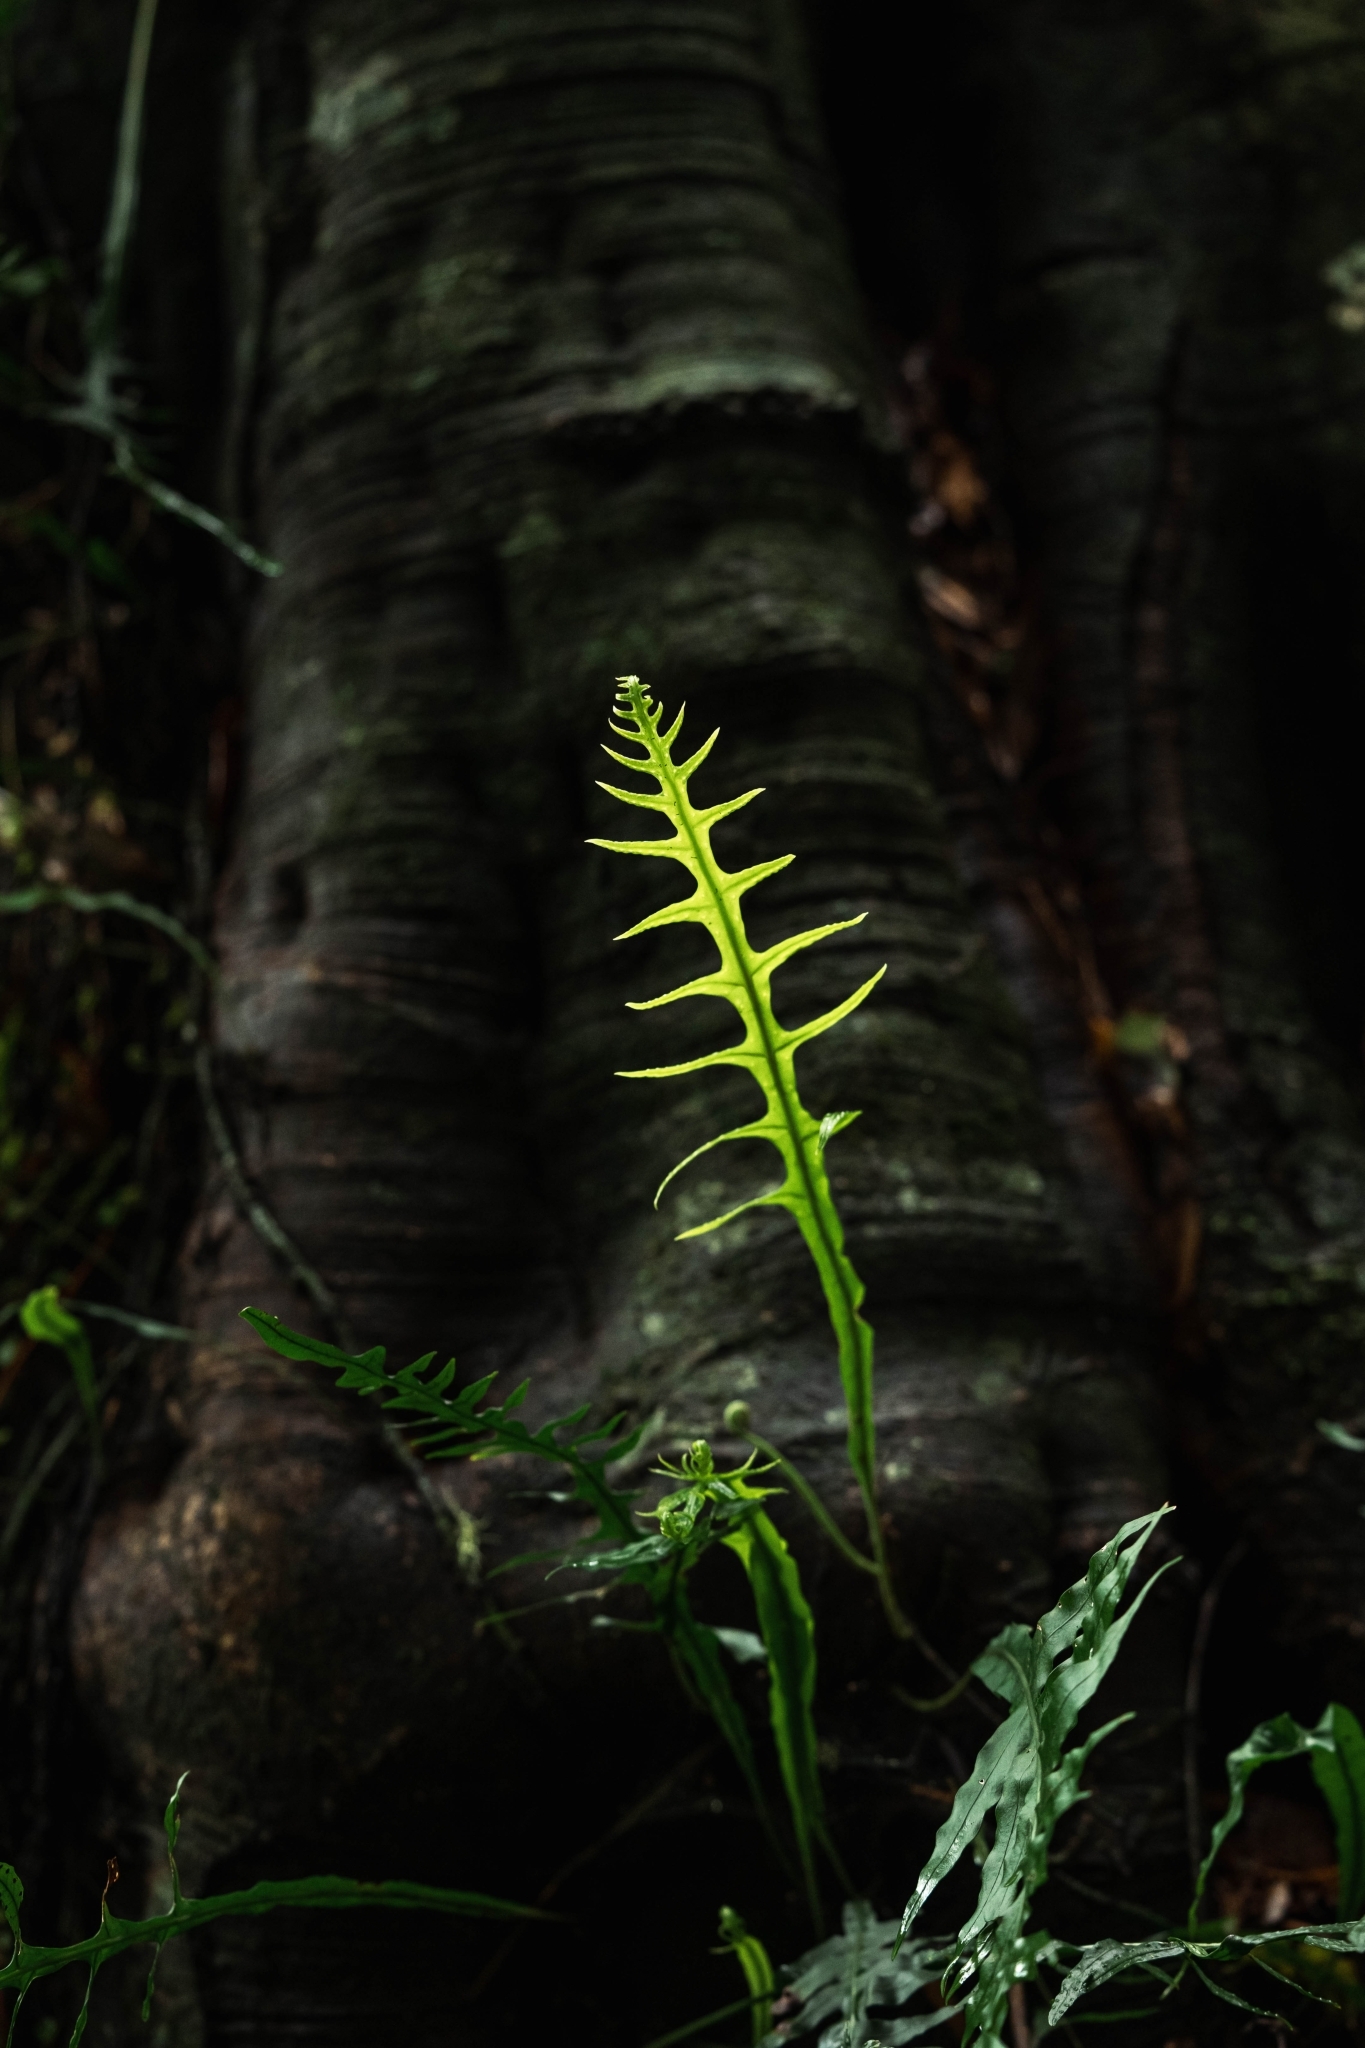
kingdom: Plantae
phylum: Tracheophyta
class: Polypodiopsida
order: Polypodiales
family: Polypodiaceae
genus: Lecanopteris
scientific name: Lecanopteris scandens
